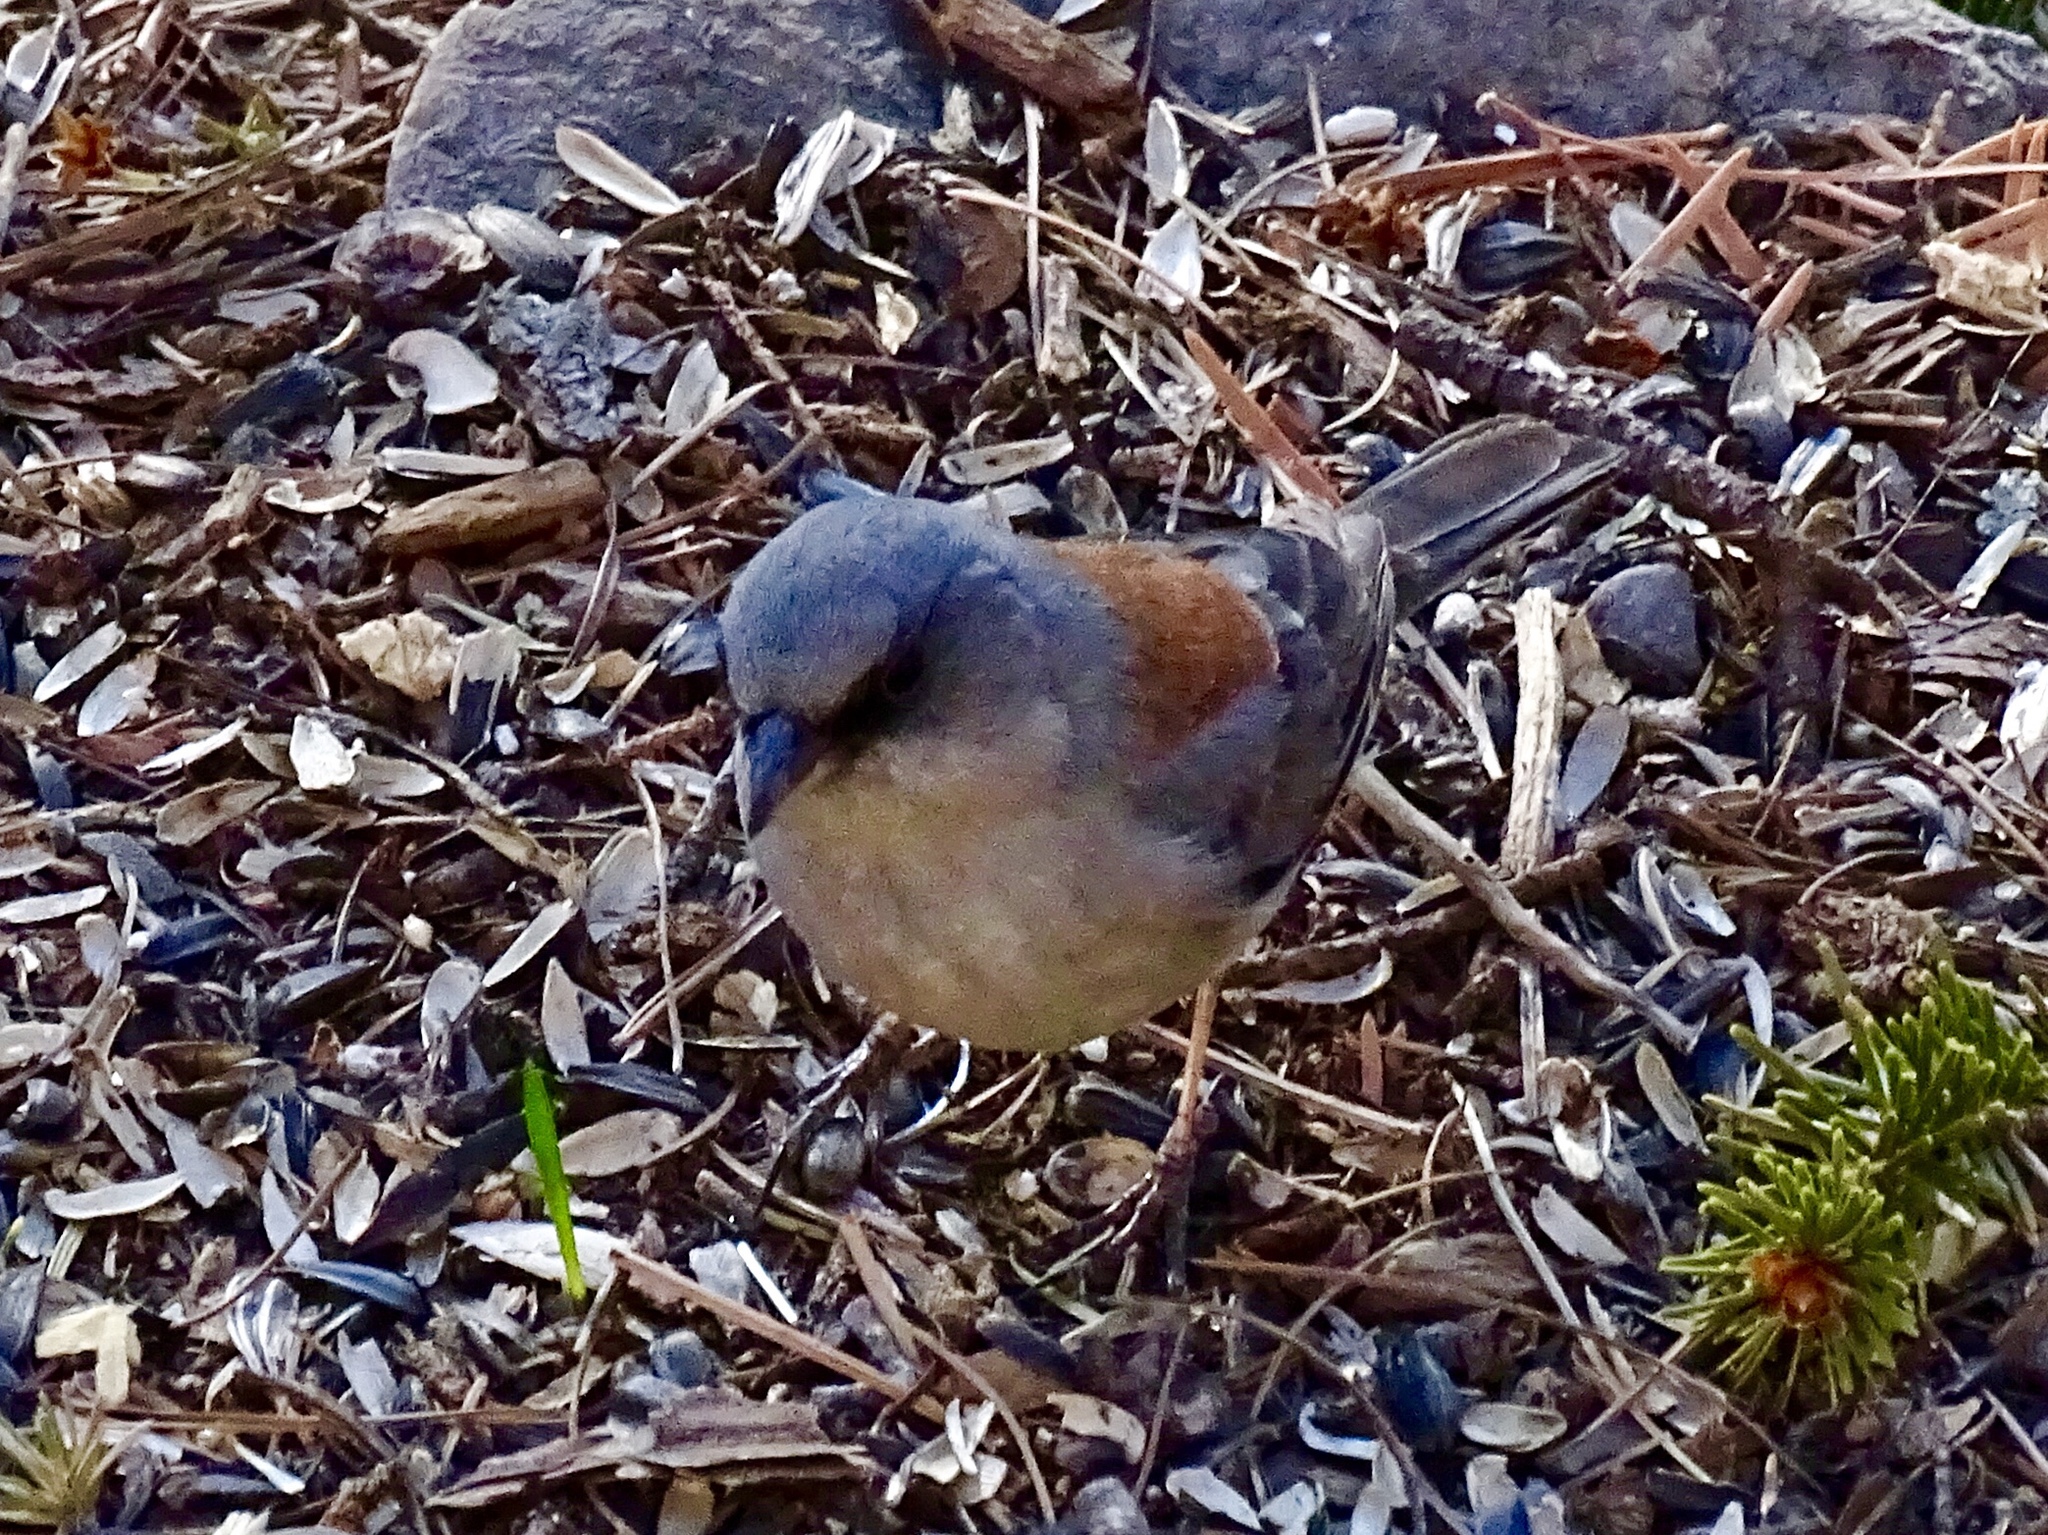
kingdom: Animalia
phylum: Chordata
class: Aves
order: Passeriformes
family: Passerellidae
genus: Junco
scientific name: Junco hyemalis
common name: Dark-eyed junco
